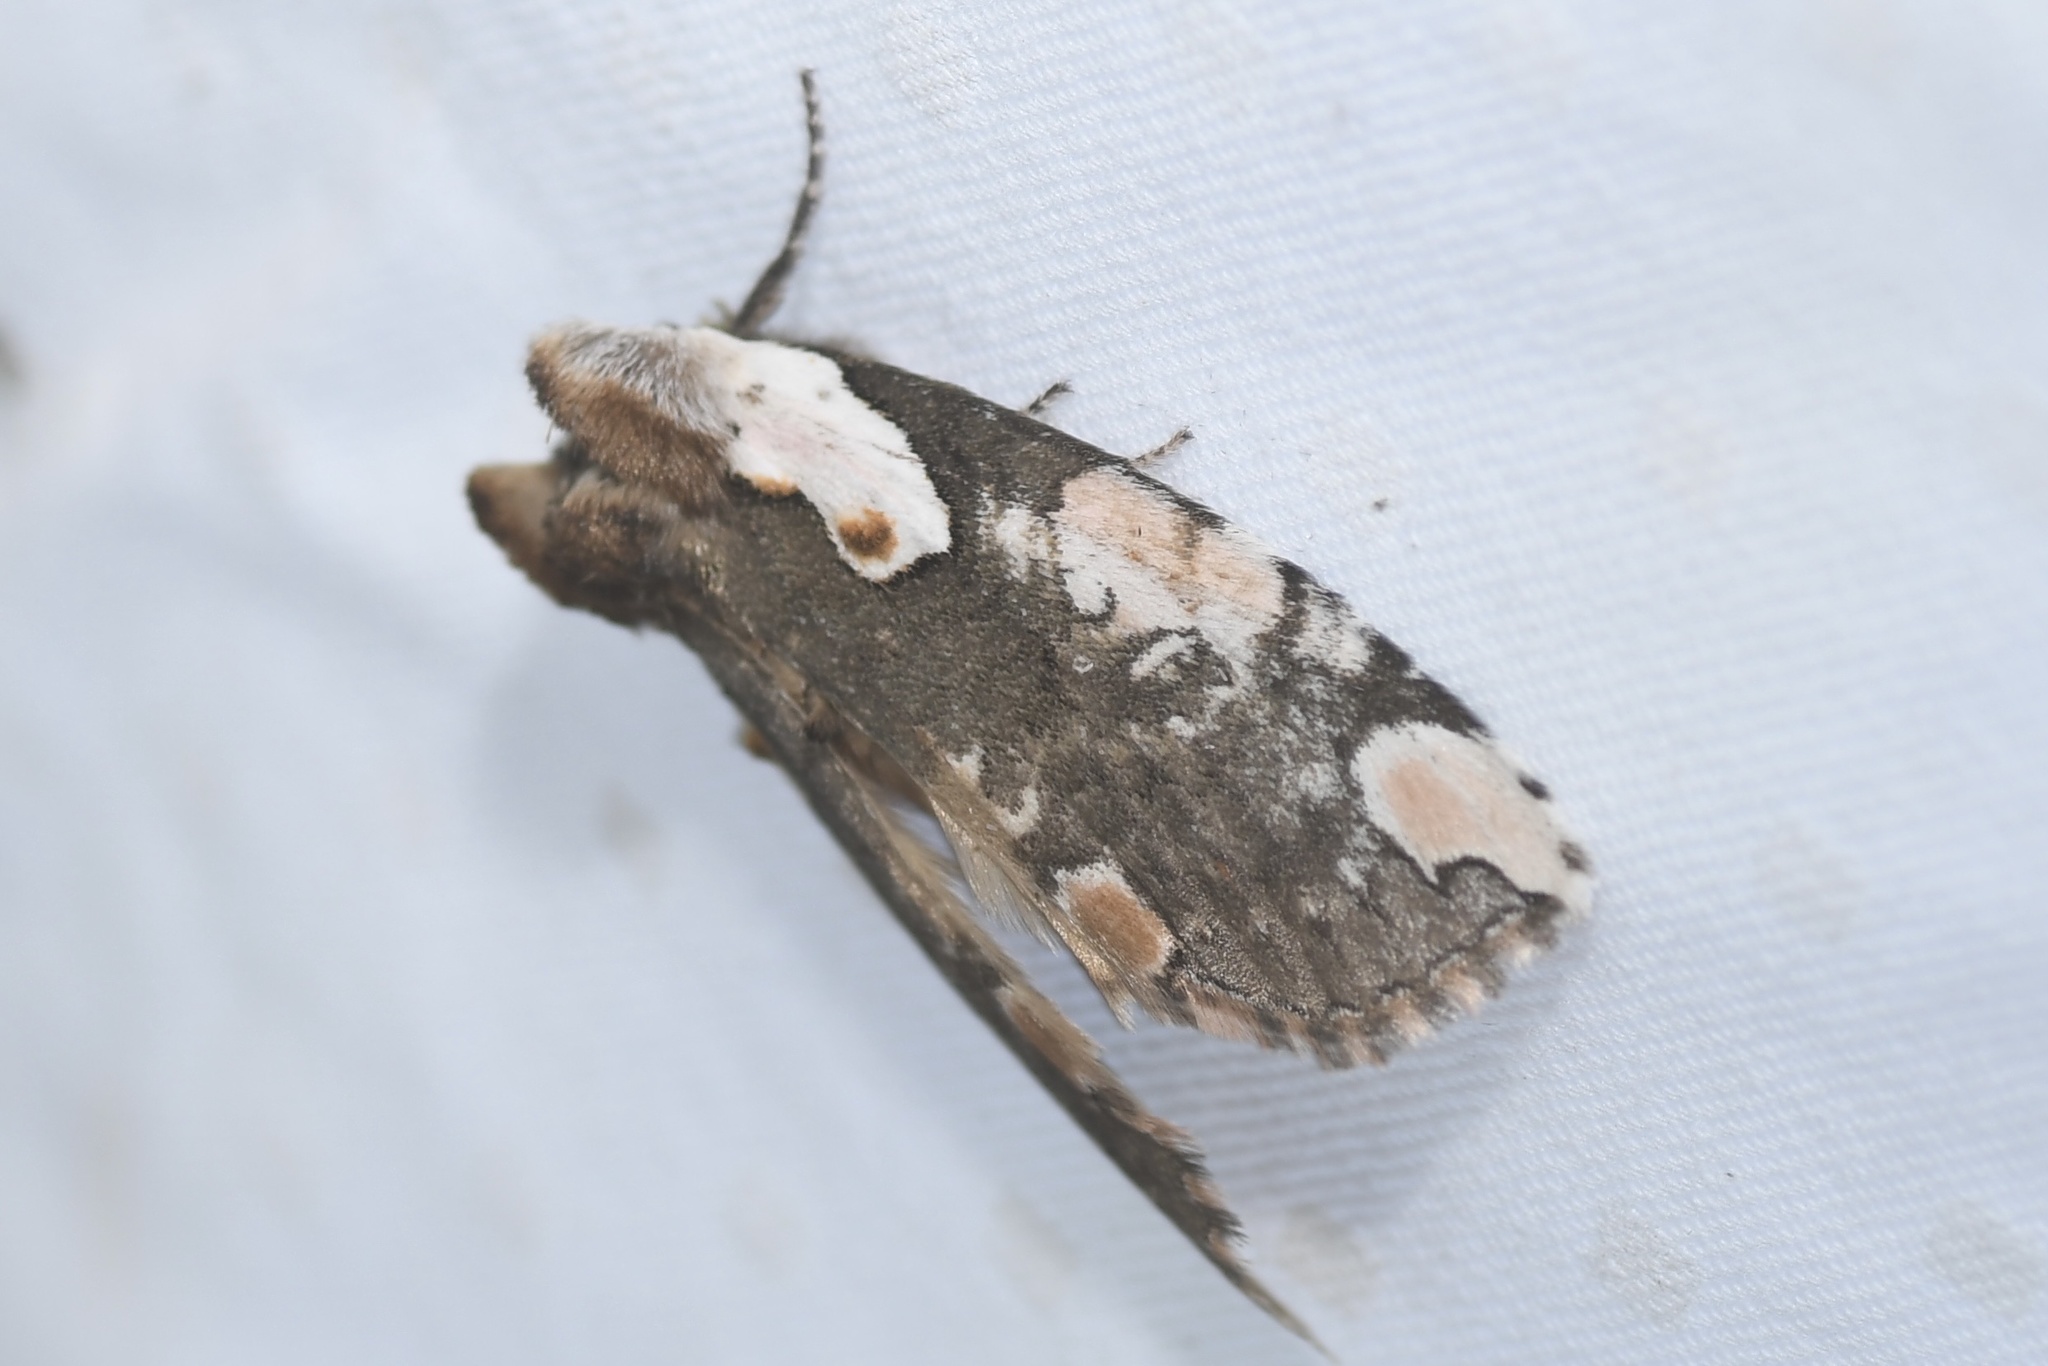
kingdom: Animalia
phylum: Arthropoda
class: Insecta
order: Lepidoptera
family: Drepanidae
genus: Euthyatira
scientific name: Euthyatira pudens
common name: Dogwood thyatirid moth
